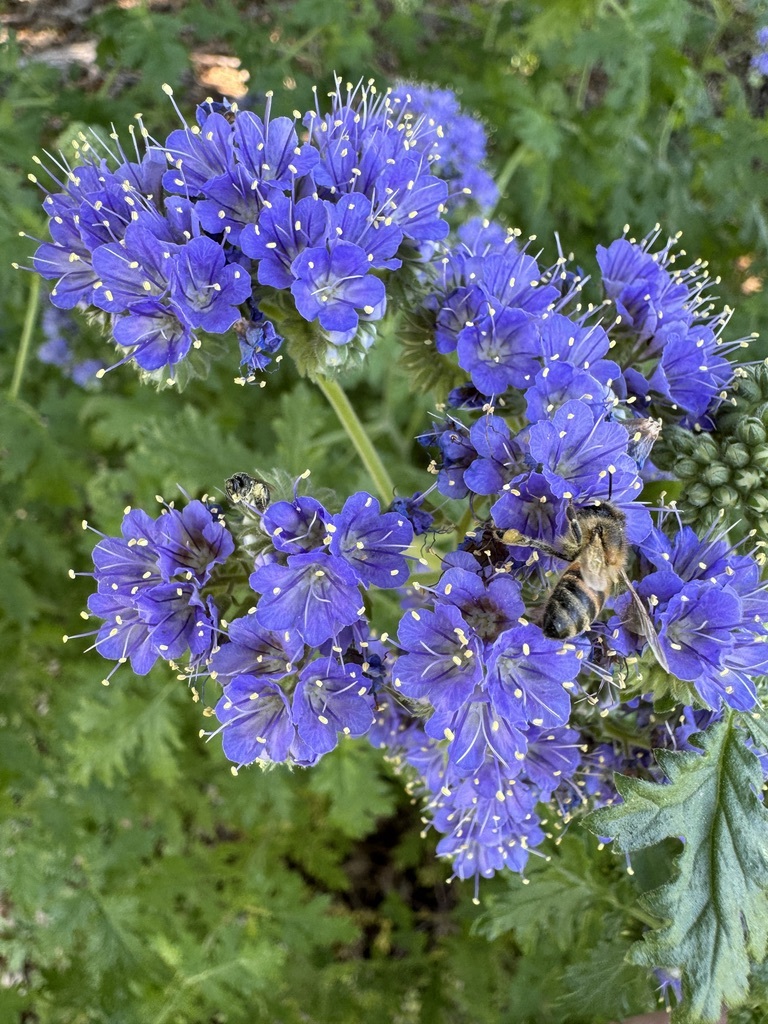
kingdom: Animalia
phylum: Arthropoda
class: Insecta
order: Hymenoptera
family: Apidae
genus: Apis
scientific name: Apis mellifera
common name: Honey bee
